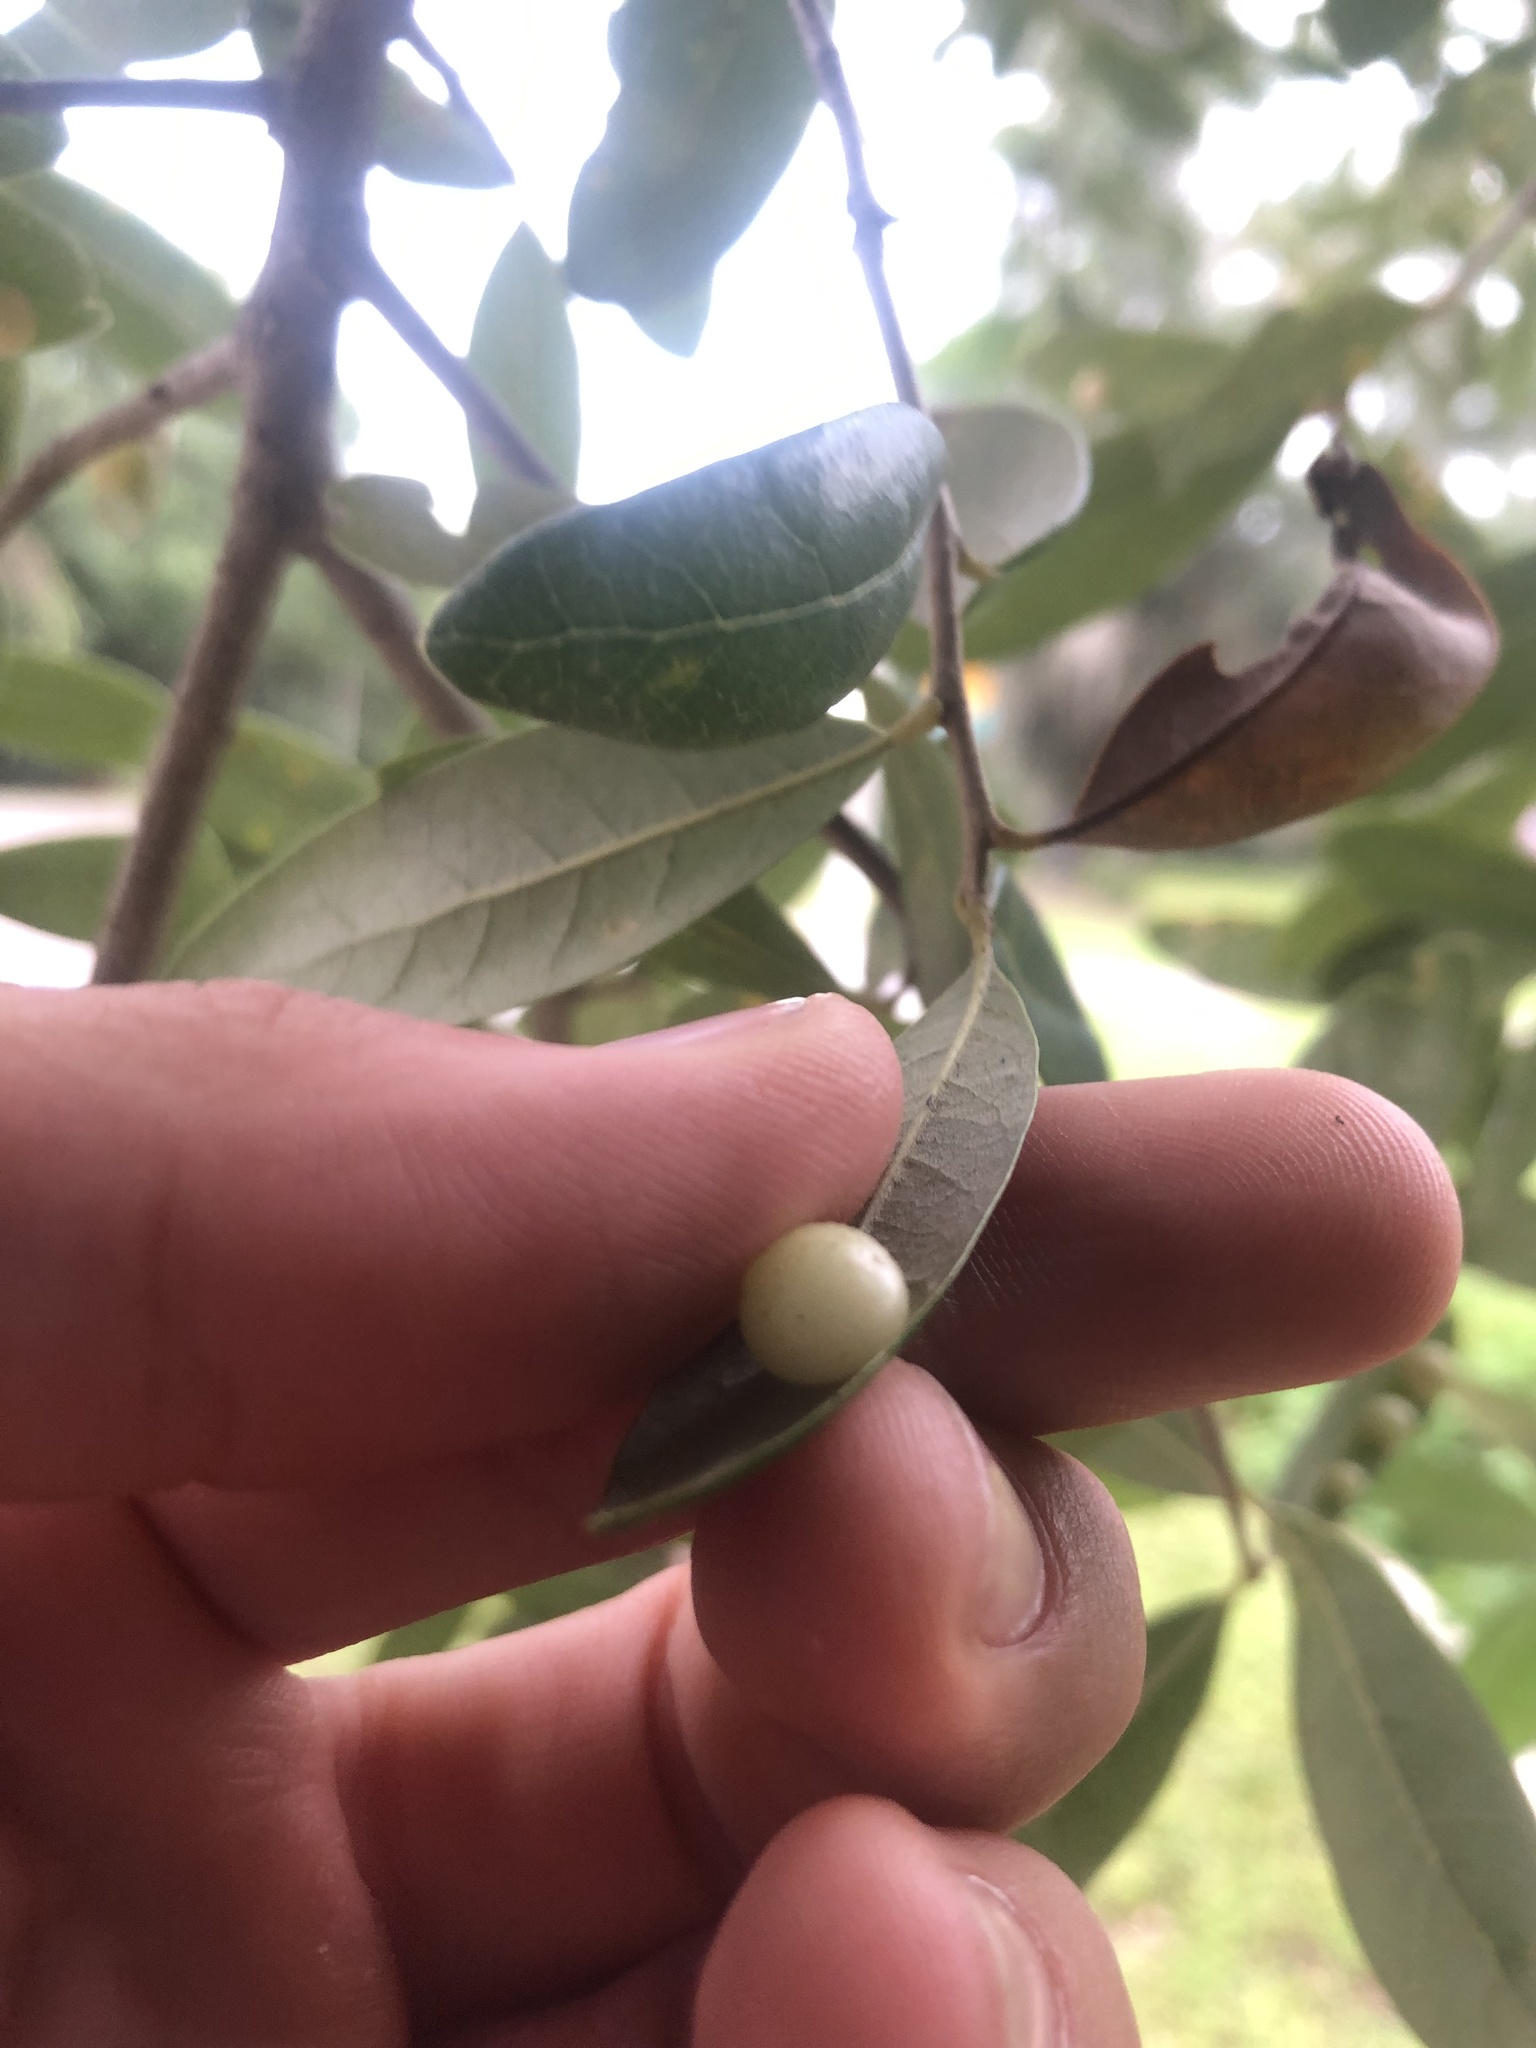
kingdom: Animalia
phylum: Arthropoda
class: Insecta
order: Hymenoptera
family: Cynipidae
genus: Belonocnema
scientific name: Belonocnema treatae
